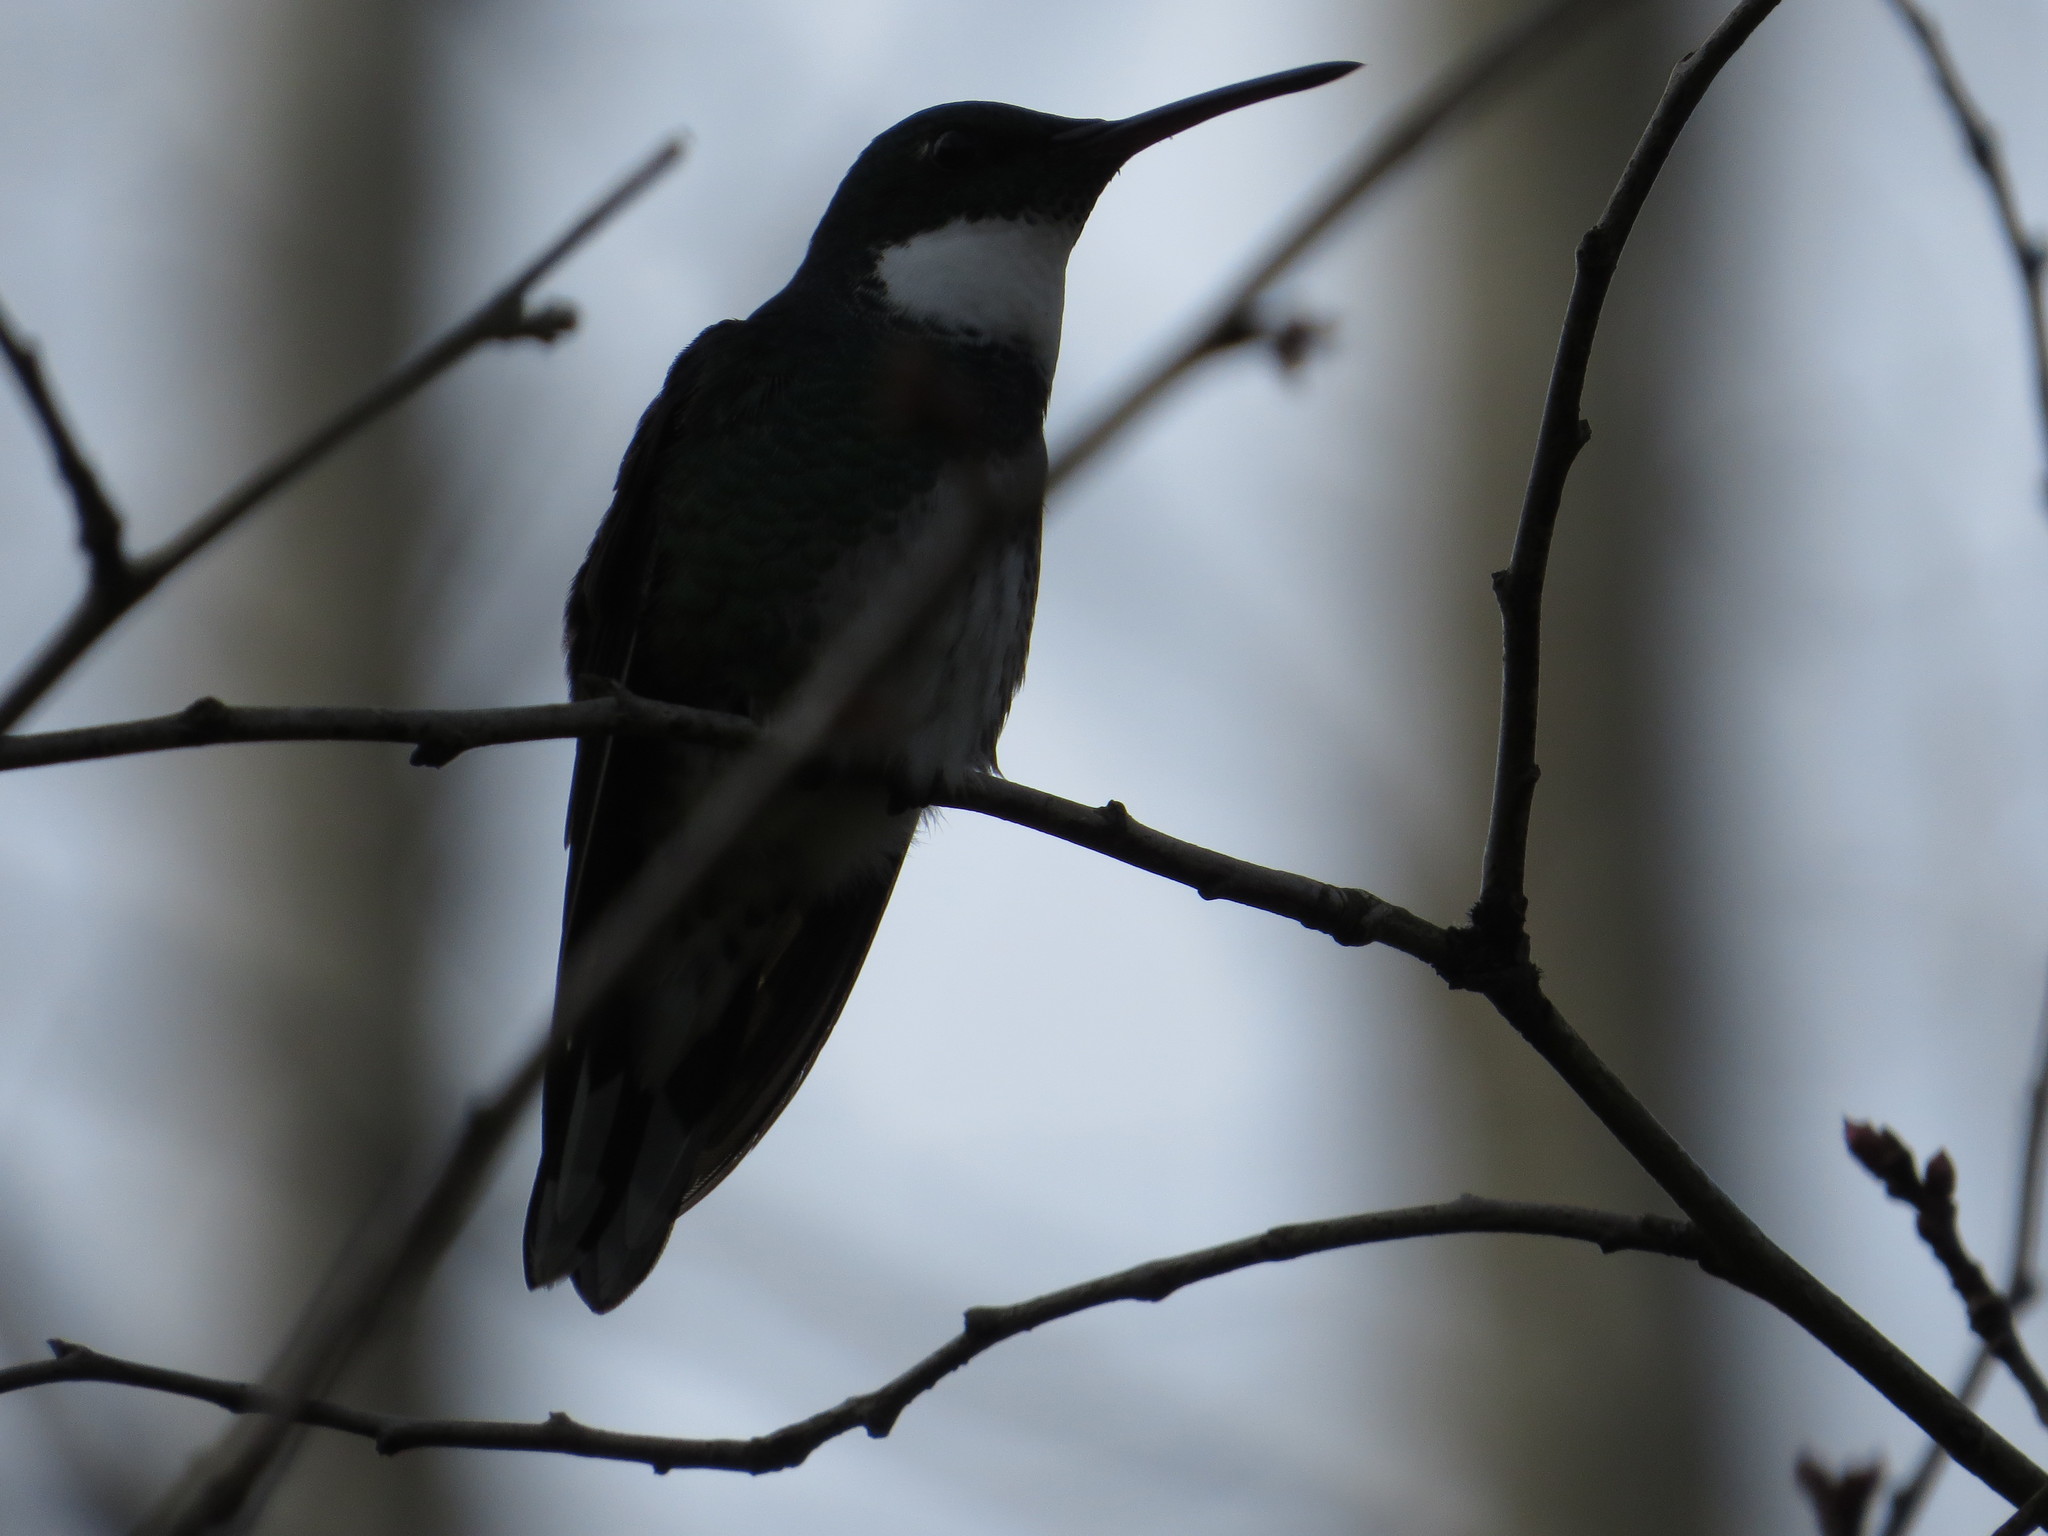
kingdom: Animalia
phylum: Chordata
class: Aves
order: Apodiformes
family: Trochilidae
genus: Leucochloris
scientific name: Leucochloris albicollis
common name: White-throated hummingbird
